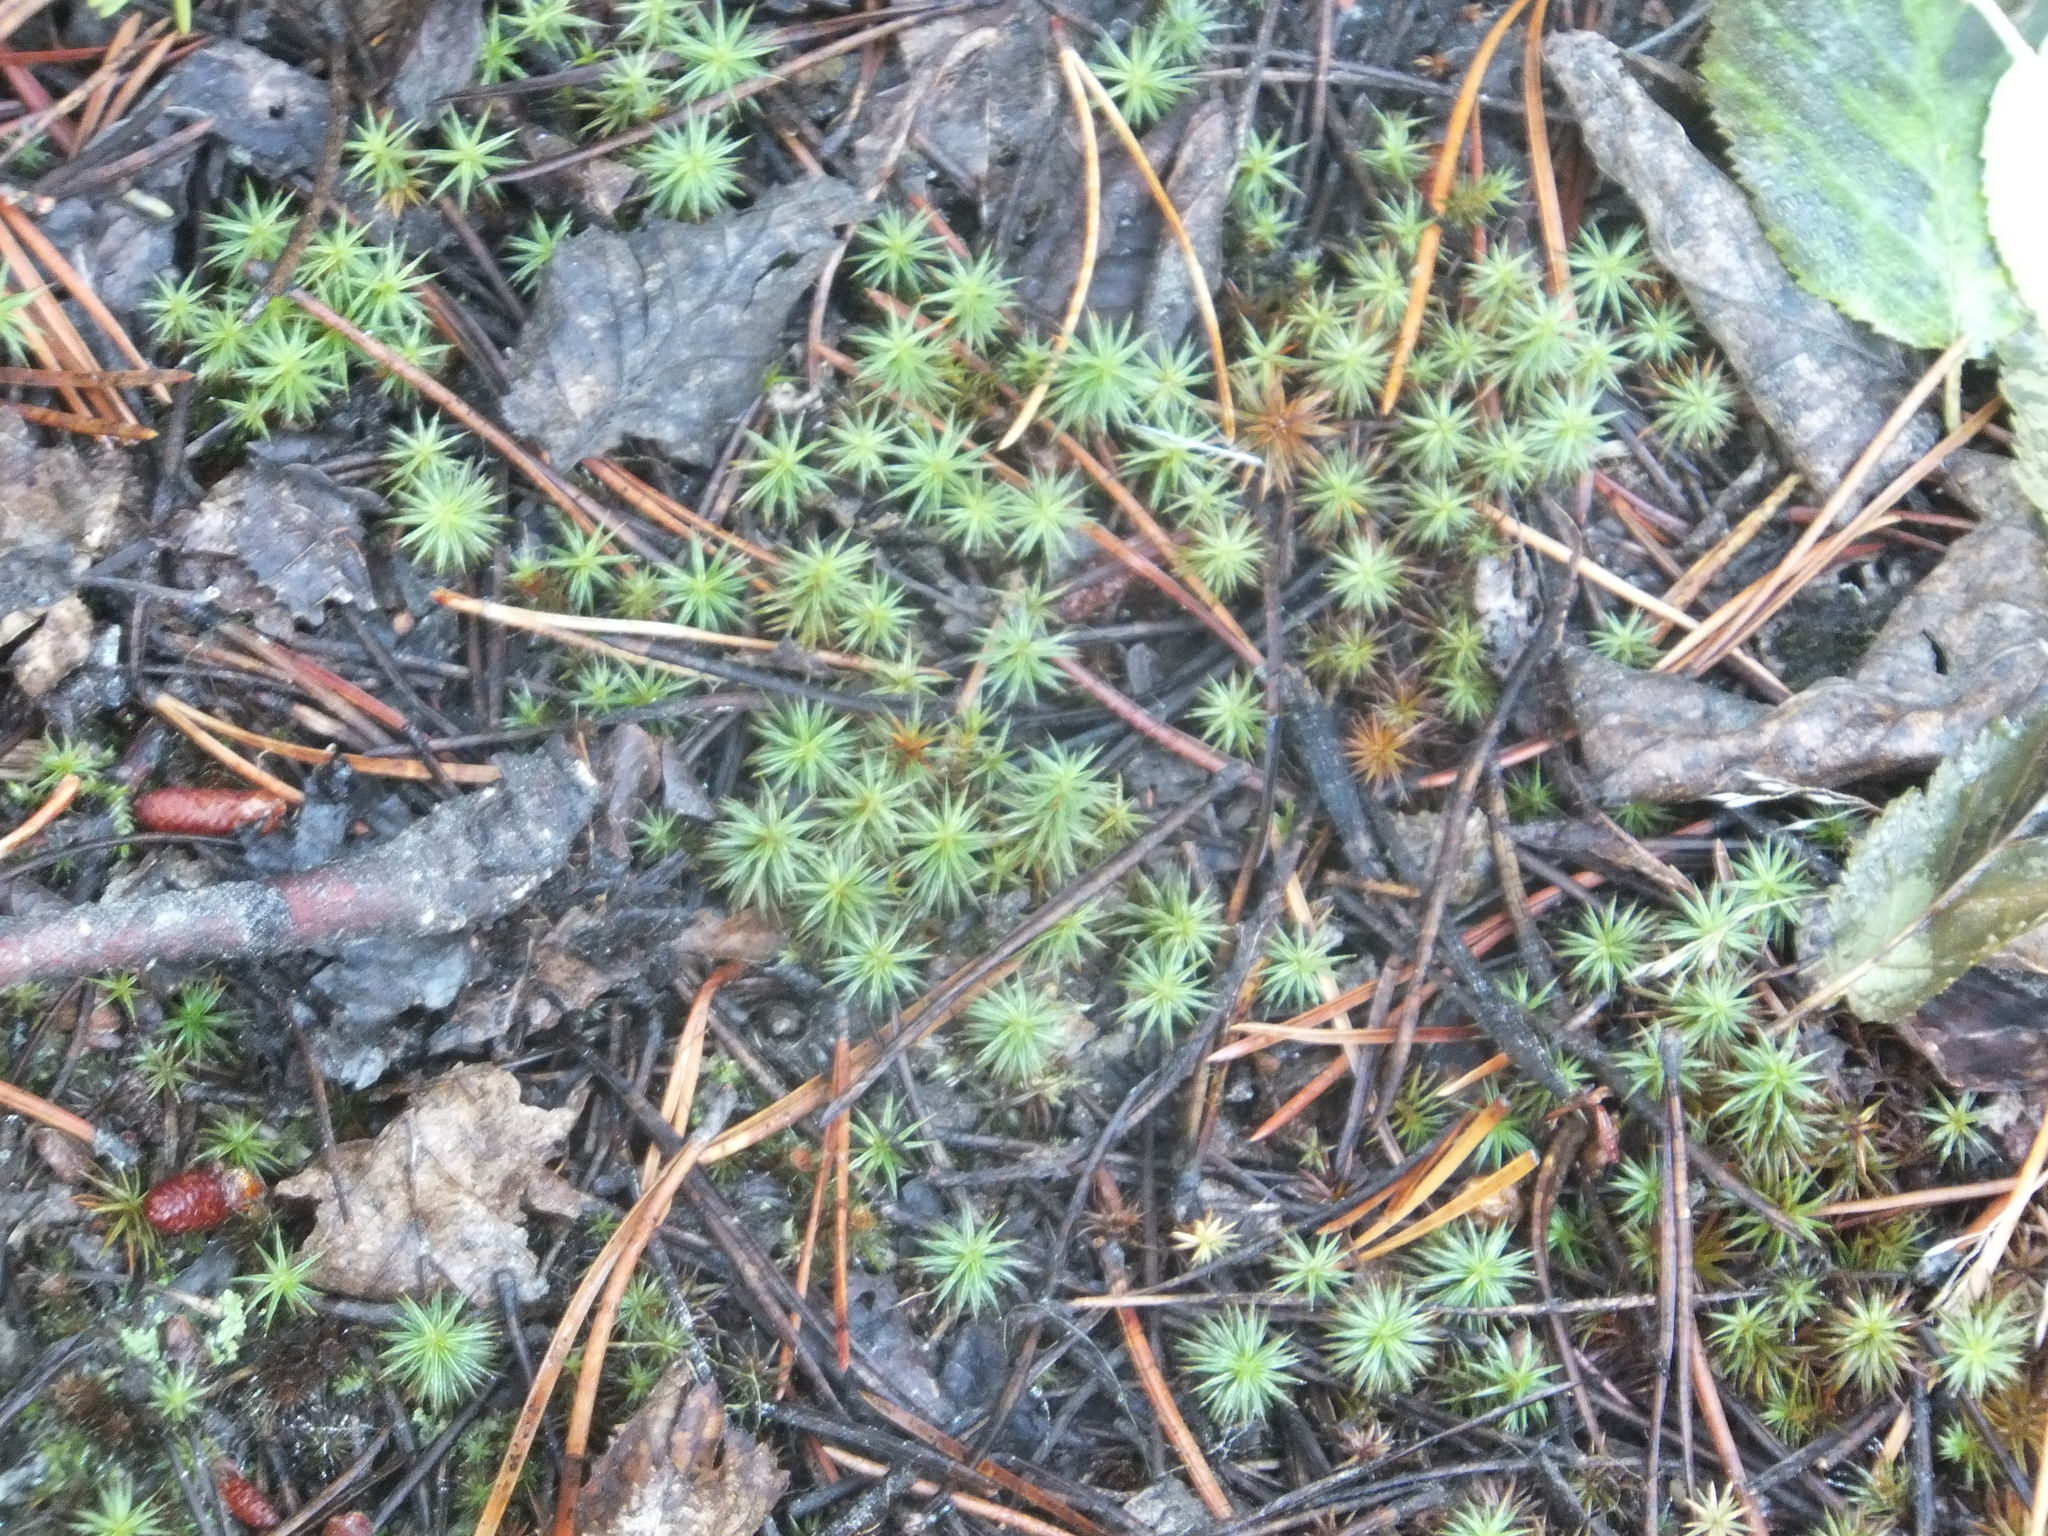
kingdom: Plantae
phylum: Bryophyta
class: Polytrichopsida
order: Polytrichales
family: Polytrichaceae
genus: Polytrichum
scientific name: Polytrichum juniperinum
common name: Juniper haircap moss
